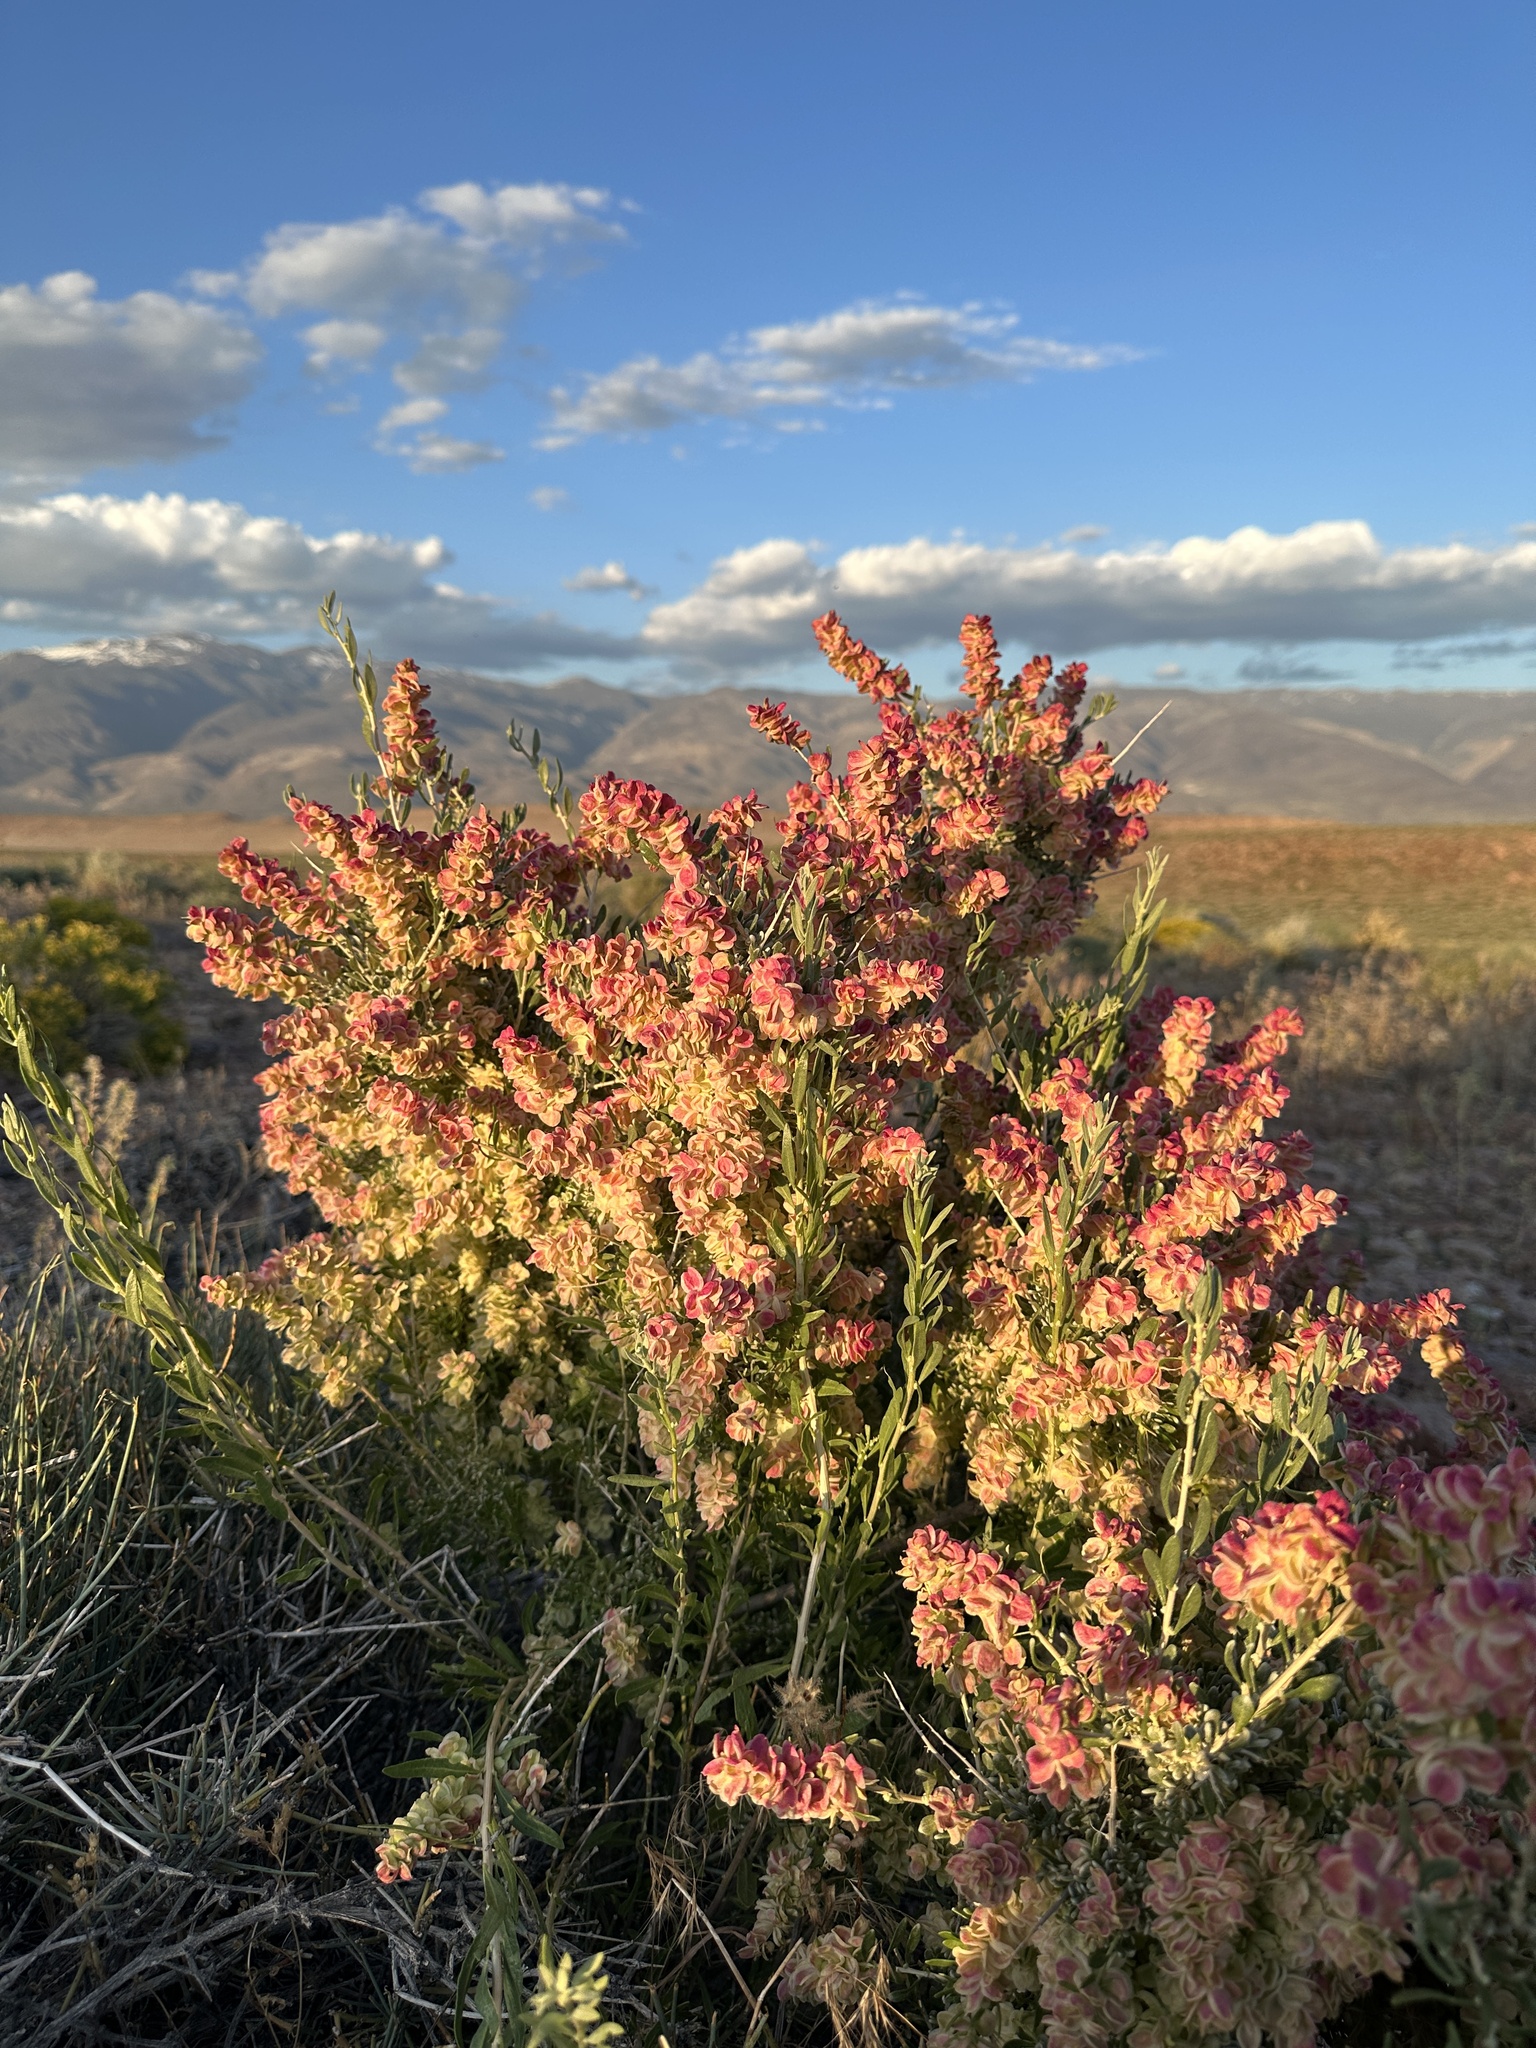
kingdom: Plantae
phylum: Tracheophyta
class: Magnoliopsida
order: Caryophyllales
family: Amaranthaceae
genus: Grayia
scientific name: Grayia spinosa
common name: Spiny hopsage
